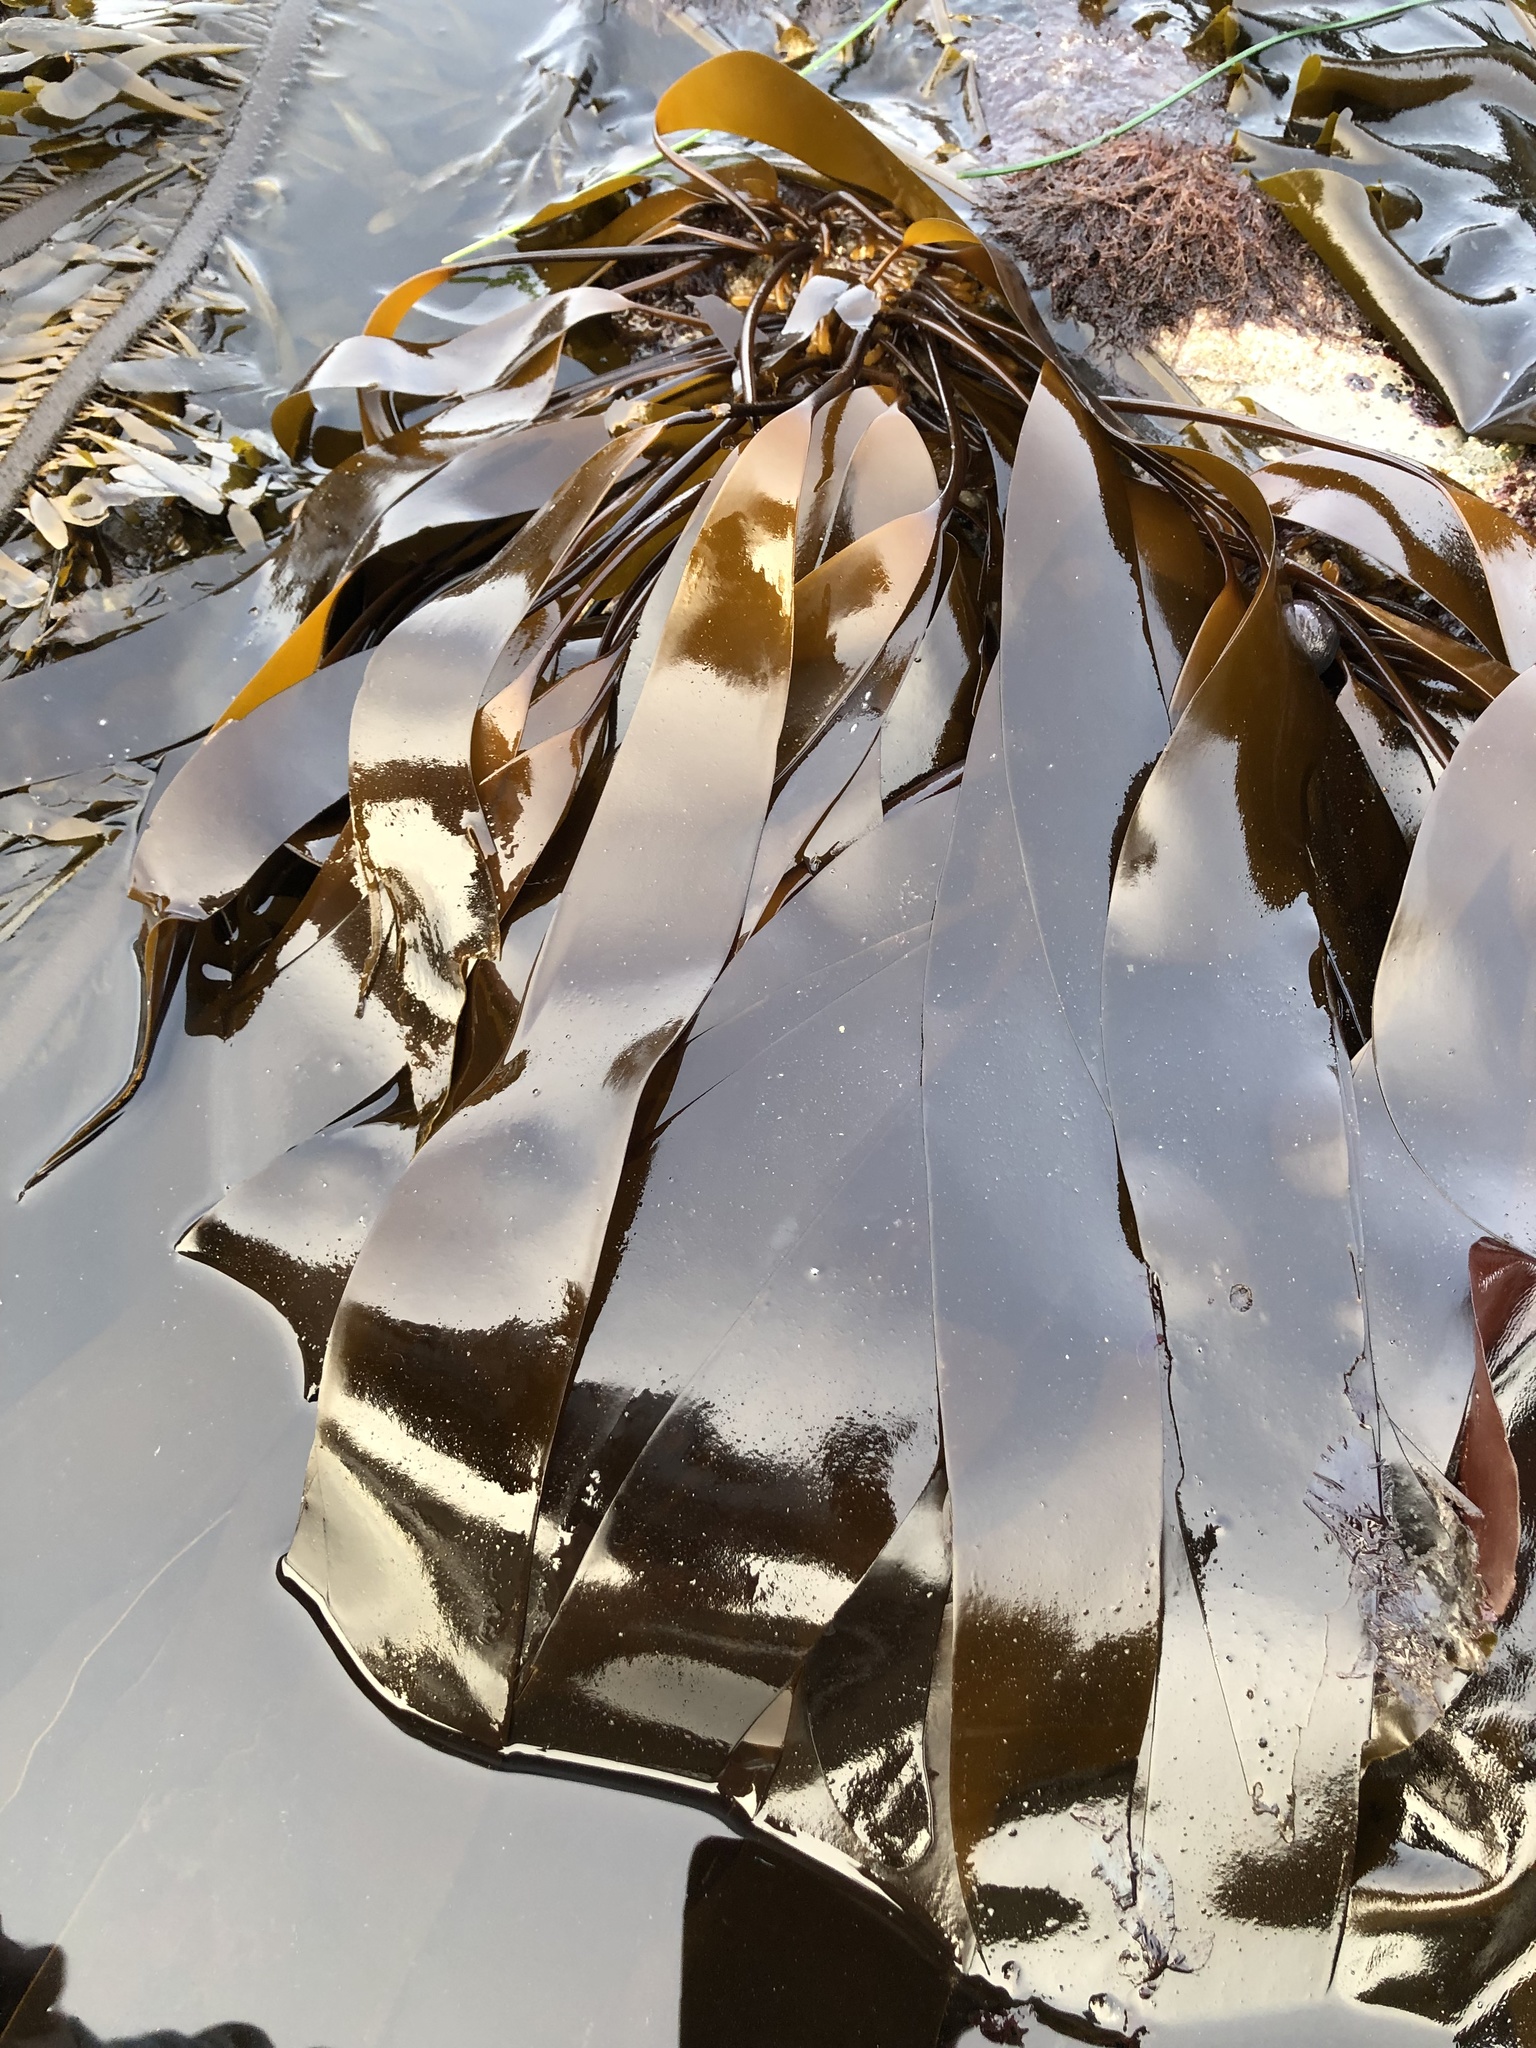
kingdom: Chromista
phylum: Ochrophyta
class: Phaeophyceae
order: Laminariales
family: Laminariaceae
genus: Laminaria
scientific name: Laminaria sinclairii
